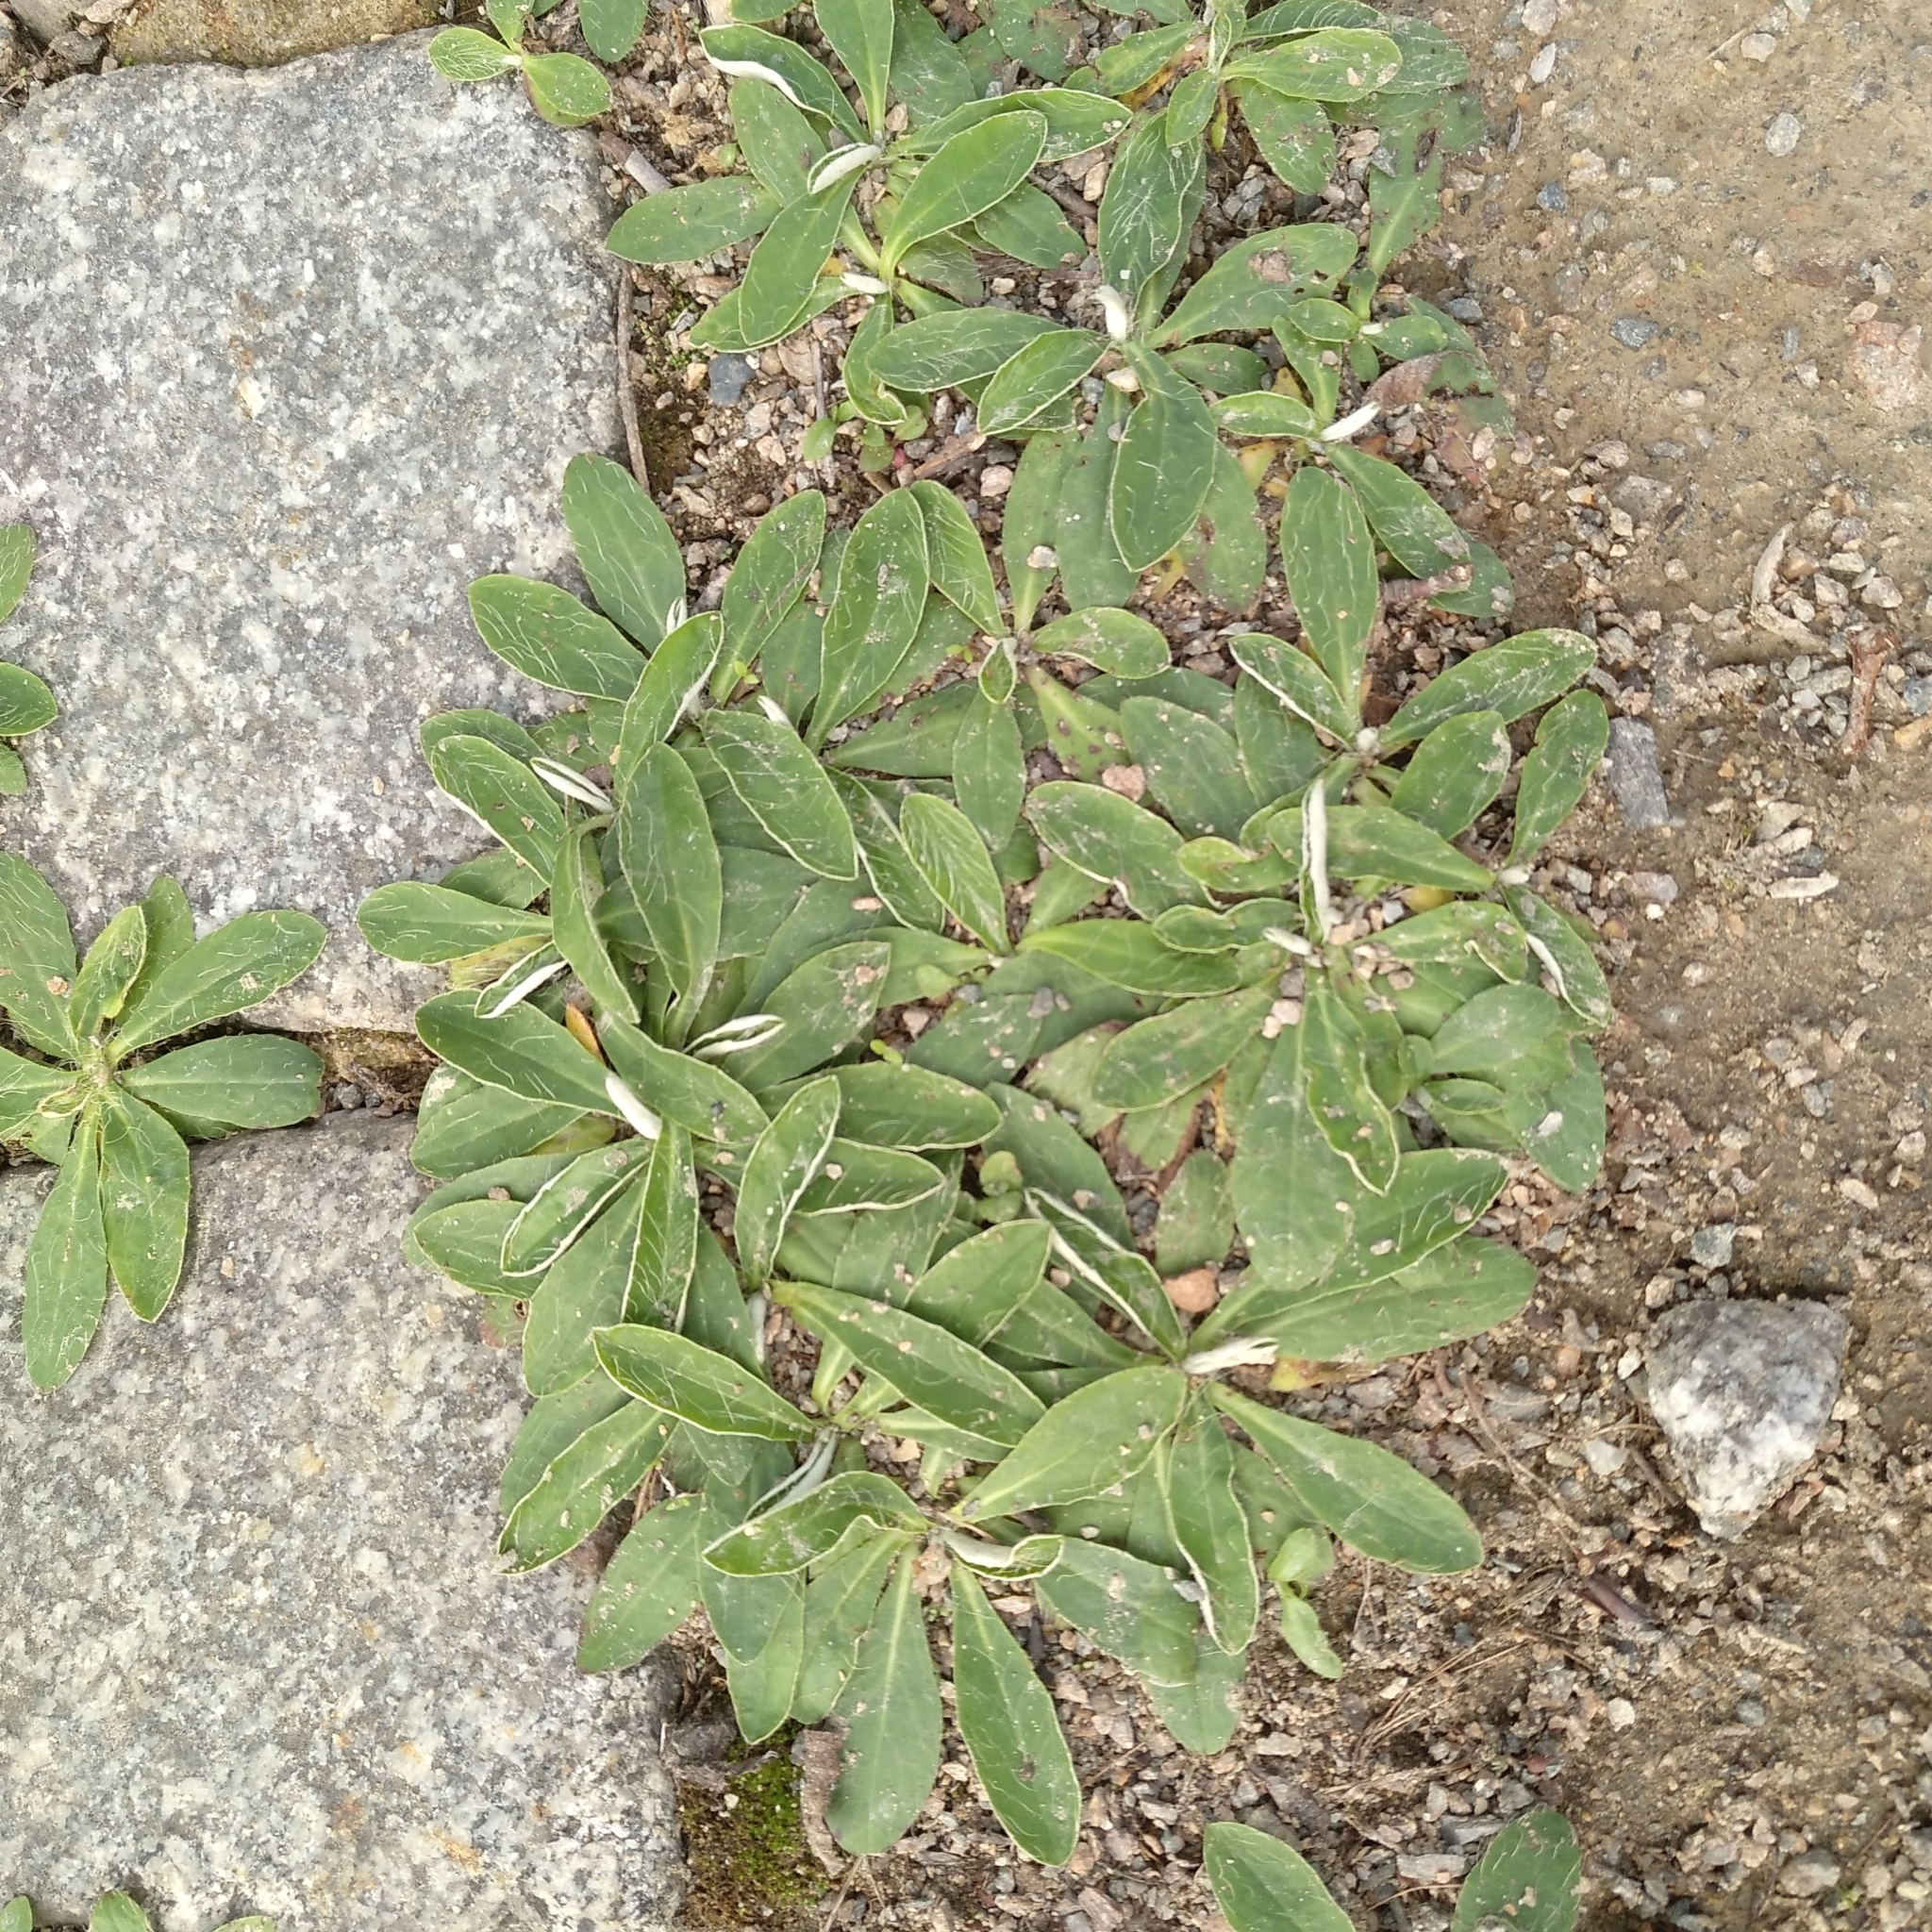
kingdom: Plantae
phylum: Tracheophyta
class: Magnoliopsida
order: Asterales
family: Asteraceae
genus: Pilosella
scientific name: Pilosella officinarum
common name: Mouse-ear hawkweed
